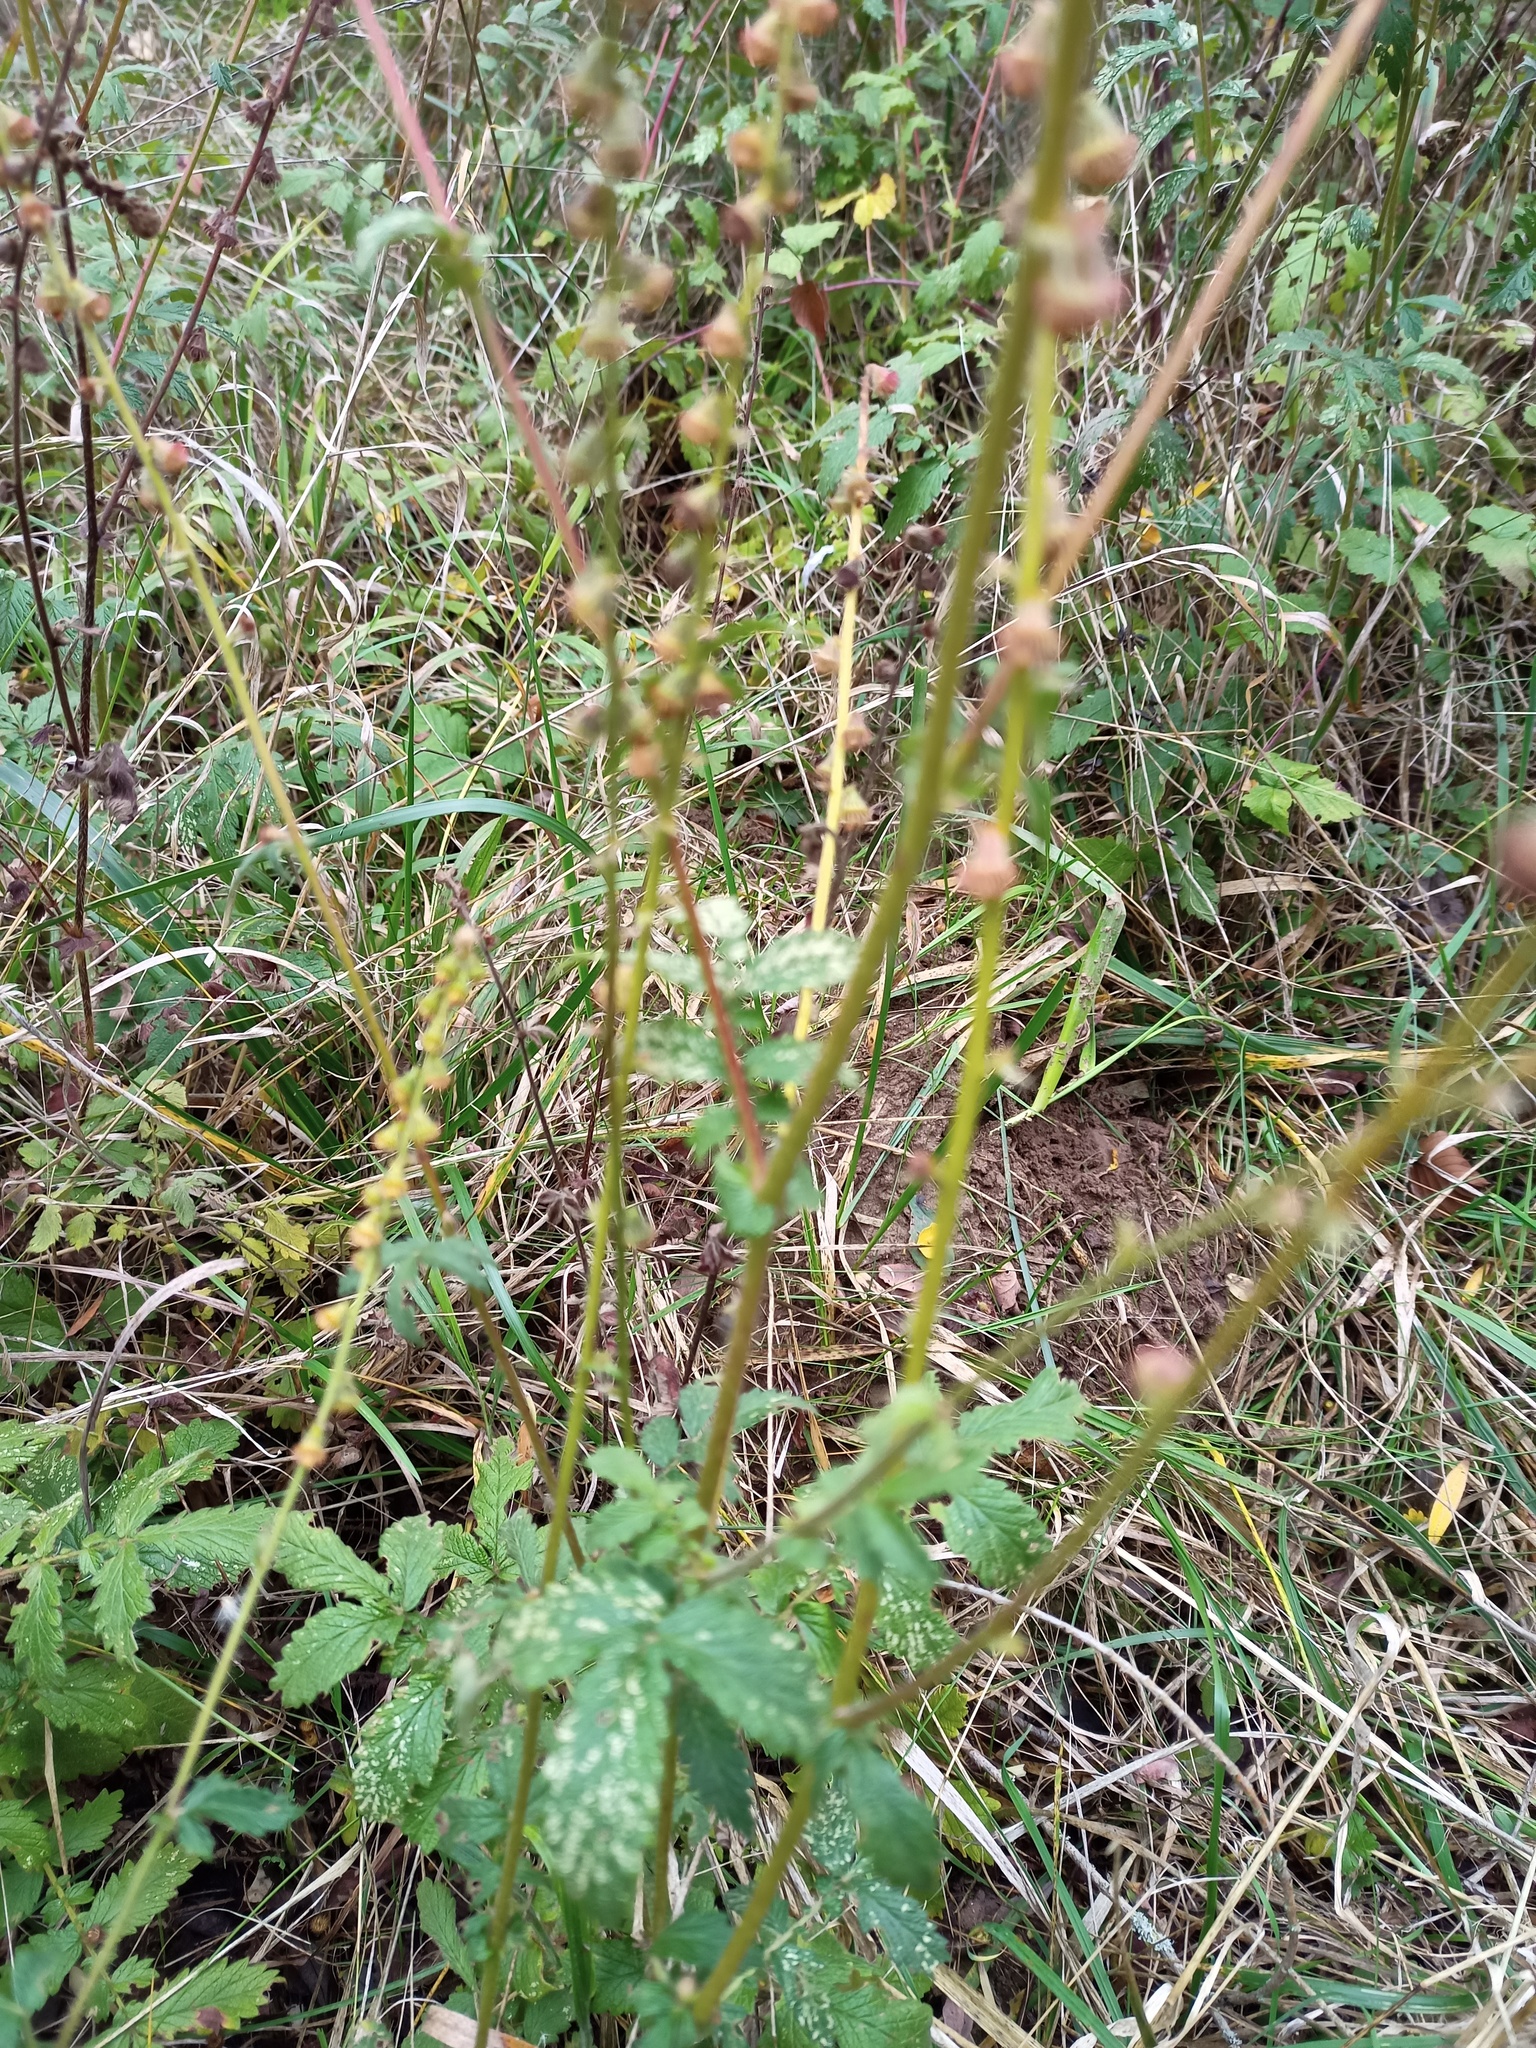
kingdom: Plantae
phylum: Tracheophyta
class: Magnoliopsida
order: Rosales
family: Rosaceae
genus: Agrimonia
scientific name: Agrimonia eupatoria
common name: Agrimony
